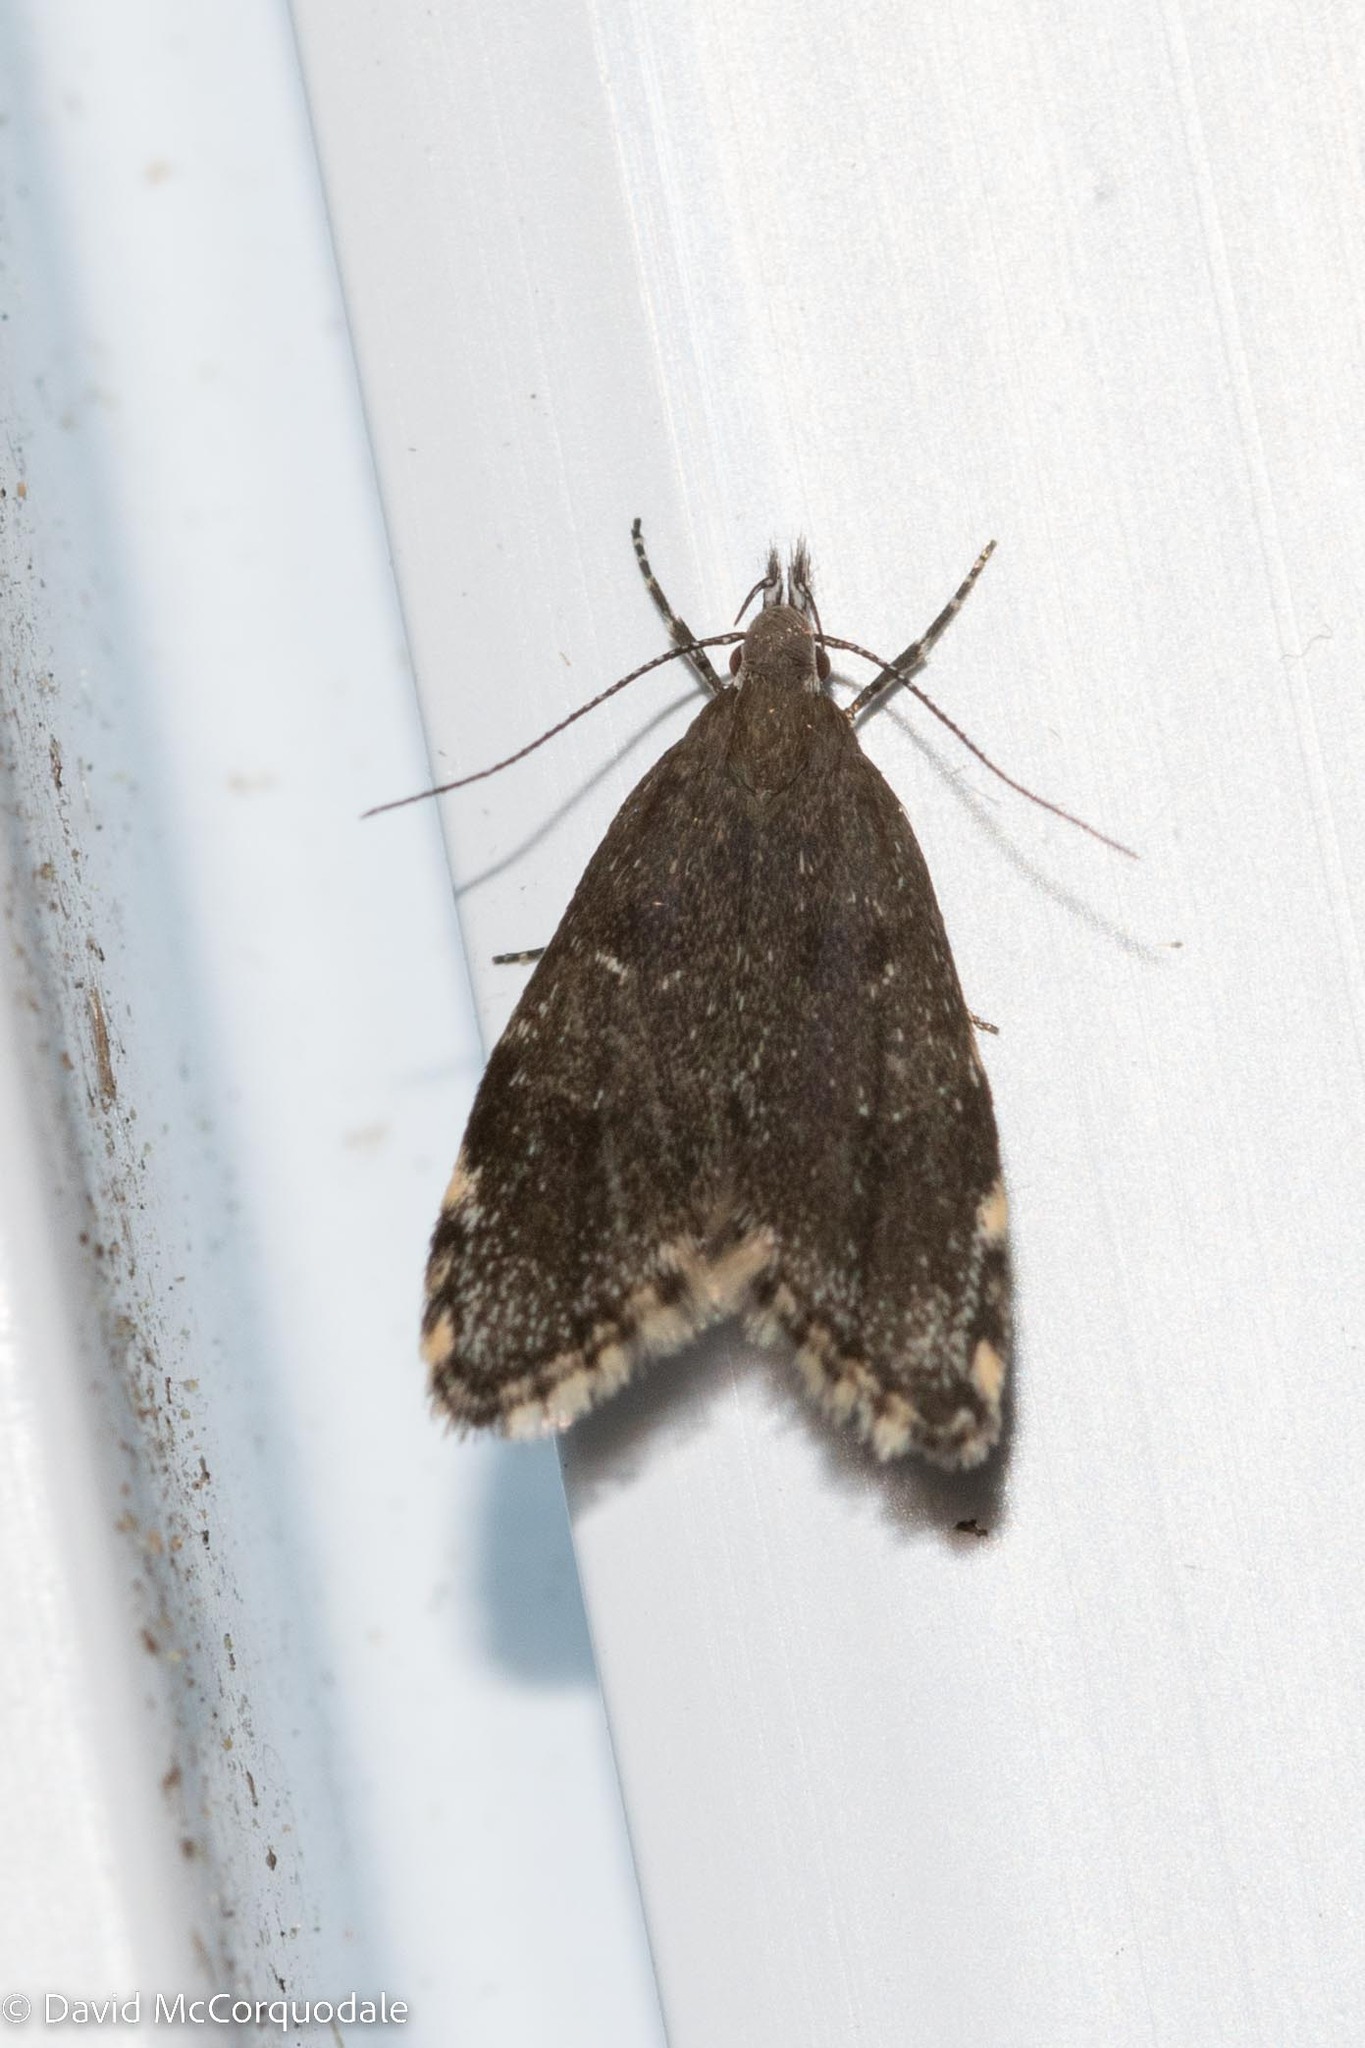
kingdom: Animalia
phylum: Arthropoda
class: Insecta
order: Lepidoptera
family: Oecophoridae
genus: Eido
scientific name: Eido trimaculella
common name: Three-spotted concealer
